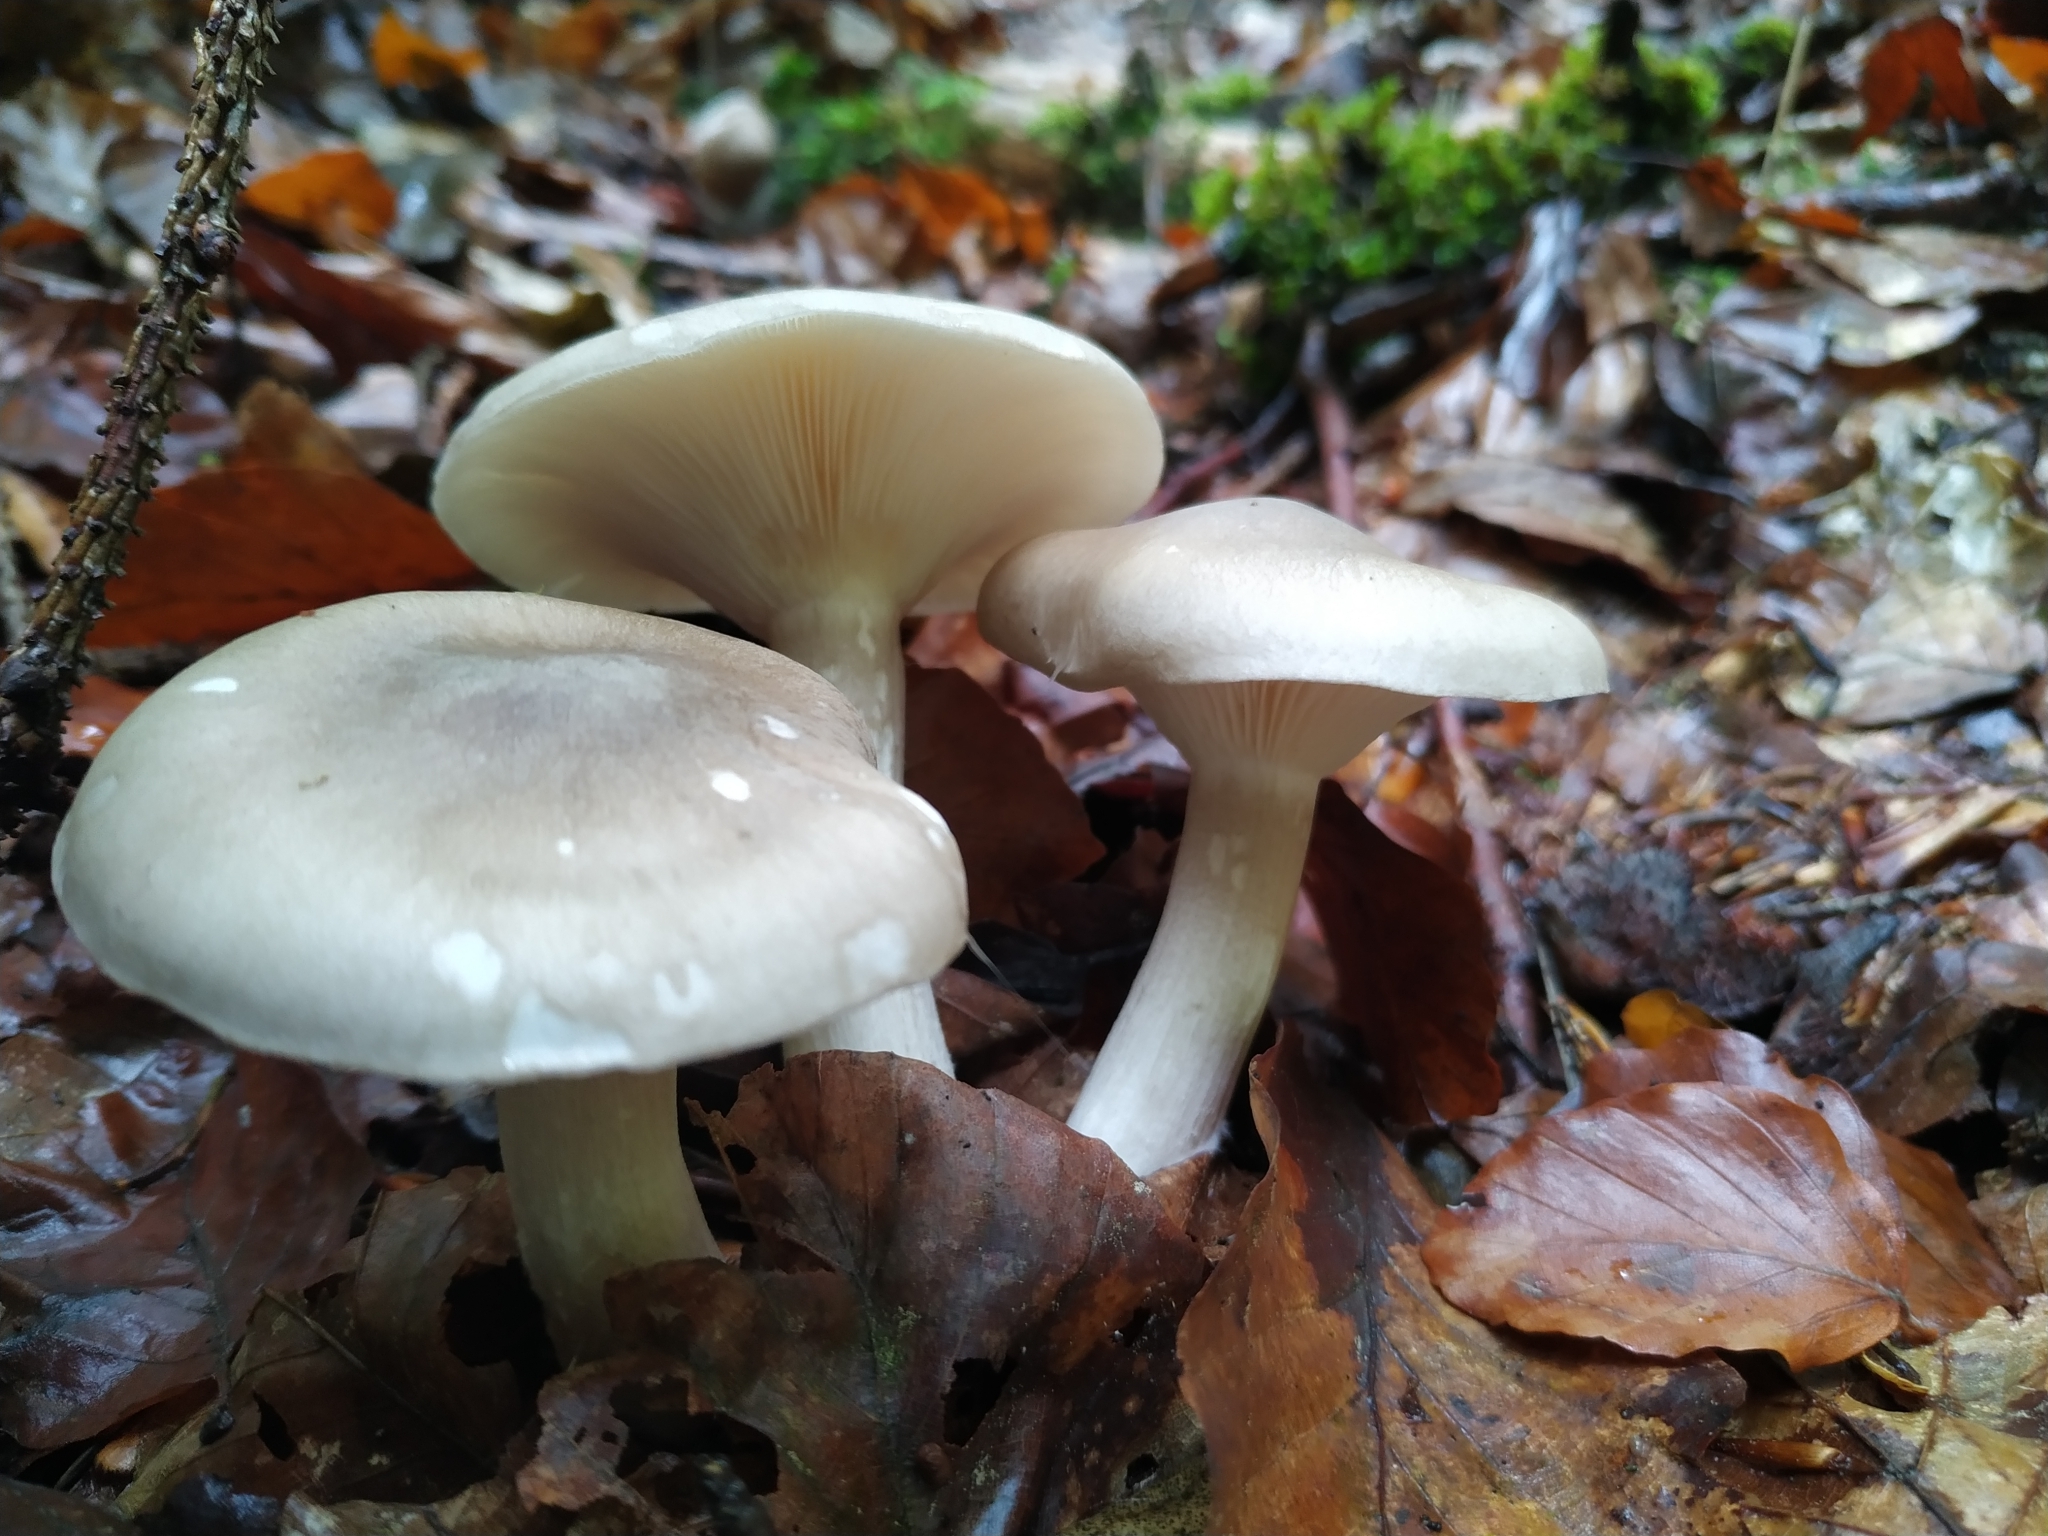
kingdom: Fungi
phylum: Basidiomycota
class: Agaricomycetes
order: Agaricales
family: Tricholomataceae
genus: Clitocybe
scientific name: Clitocybe nebularis
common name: Clouded agaric
